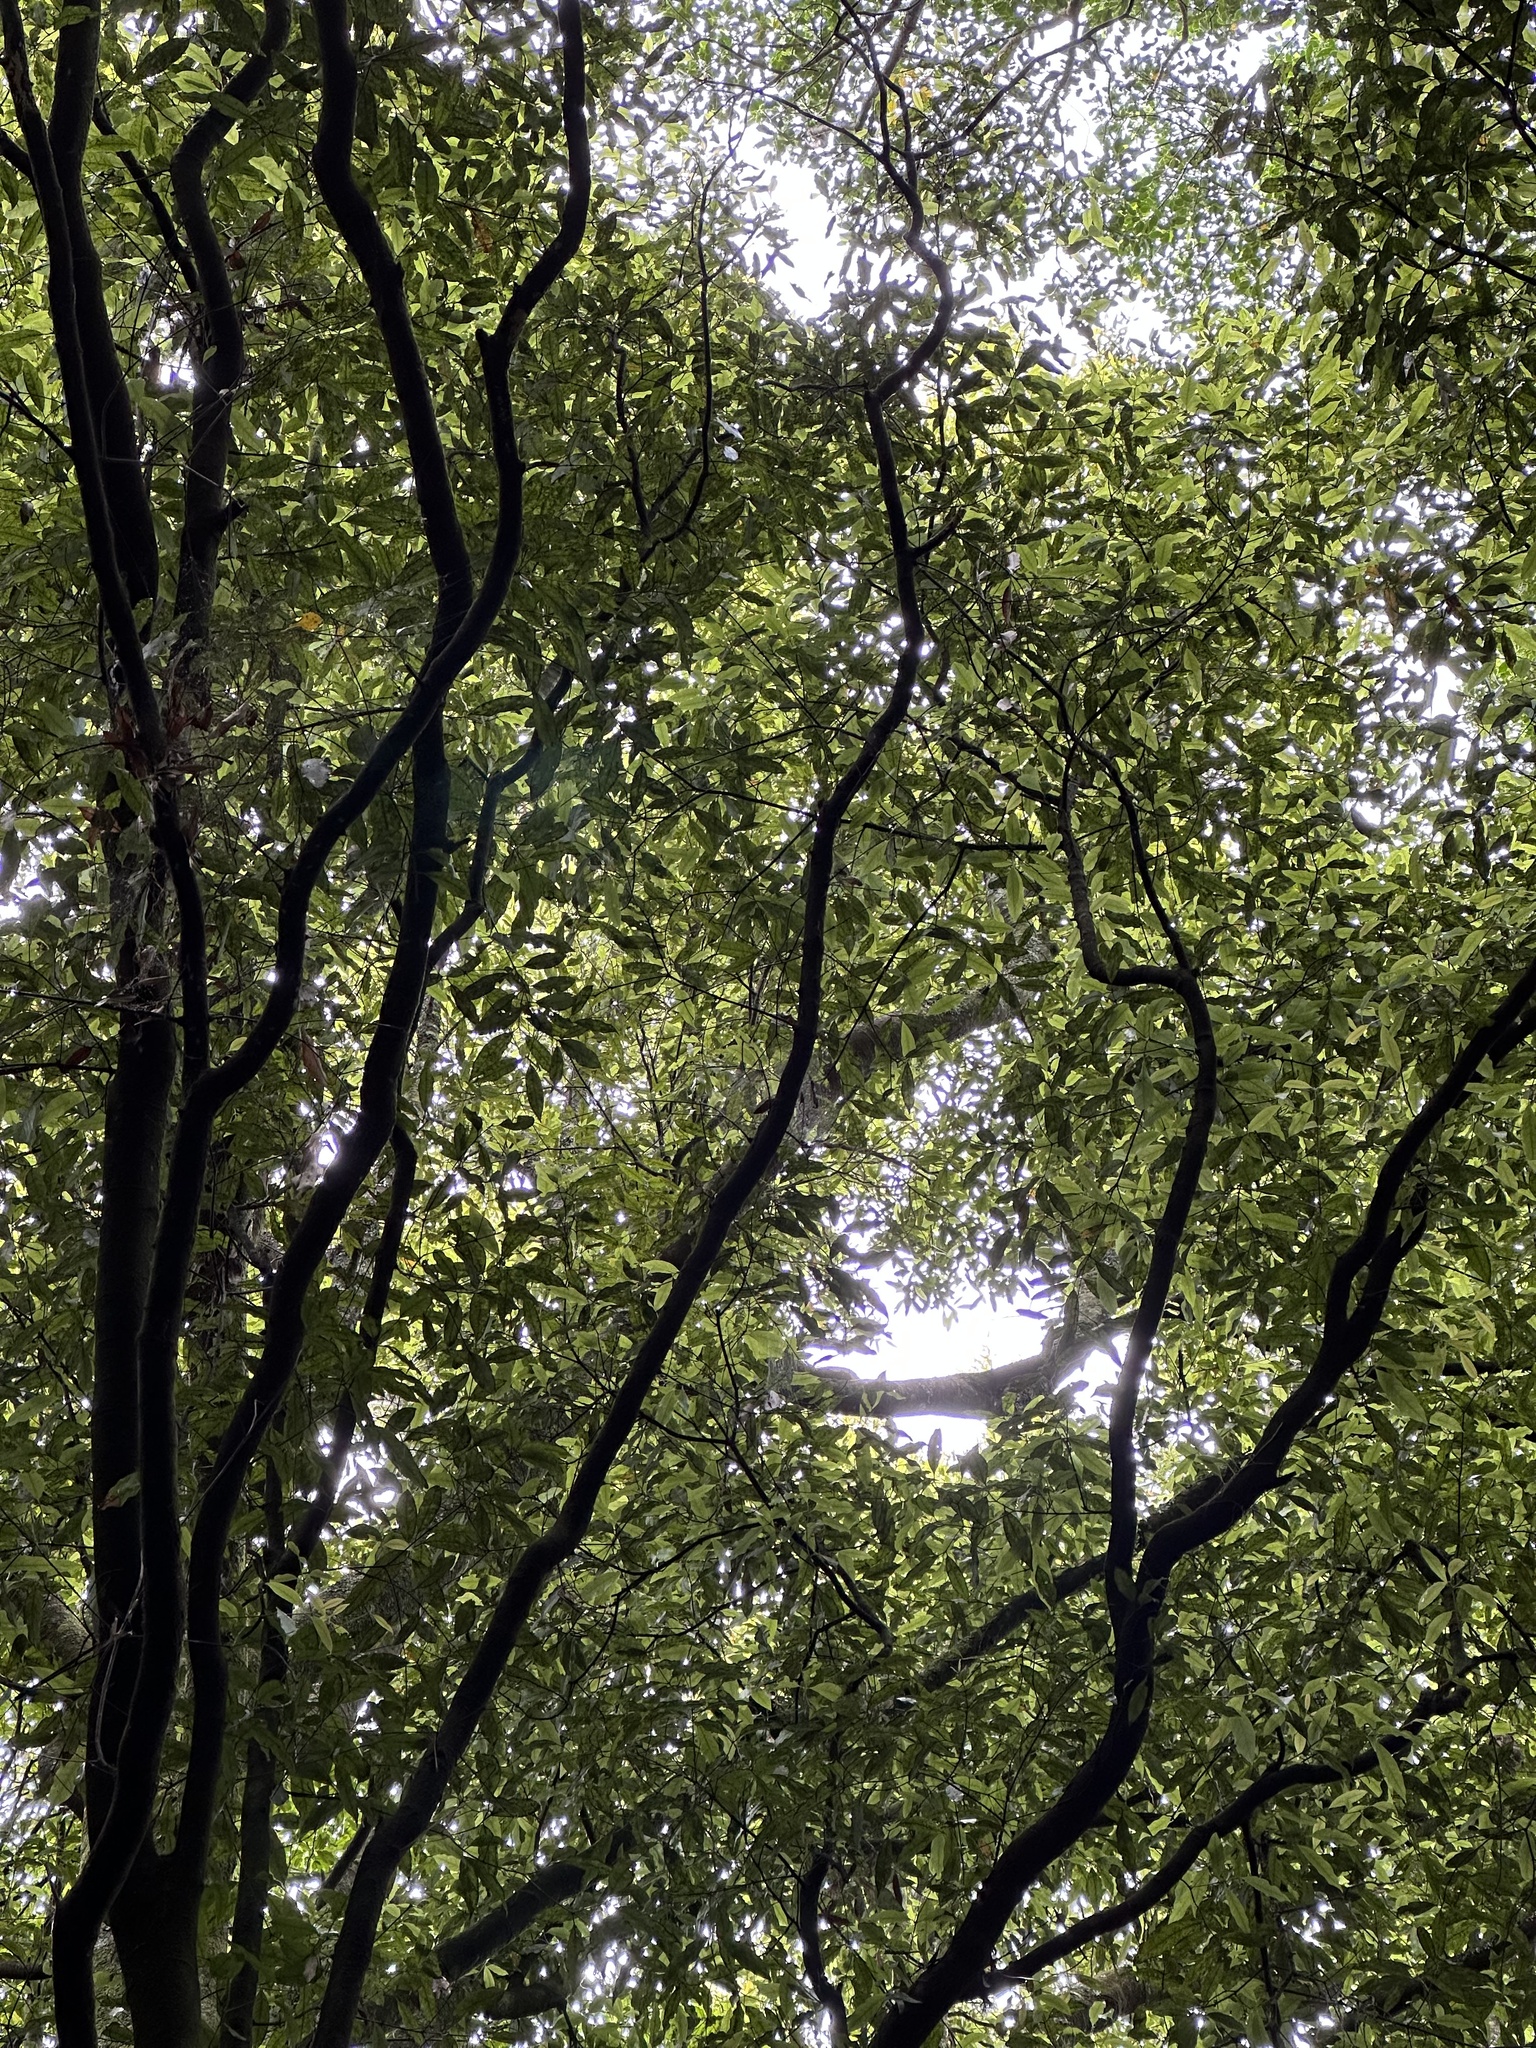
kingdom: Plantae
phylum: Tracheophyta
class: Magnoliopsida
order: Laurales
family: Lauraceae
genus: Beilschmiedia
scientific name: Beilschmiedia tawa
